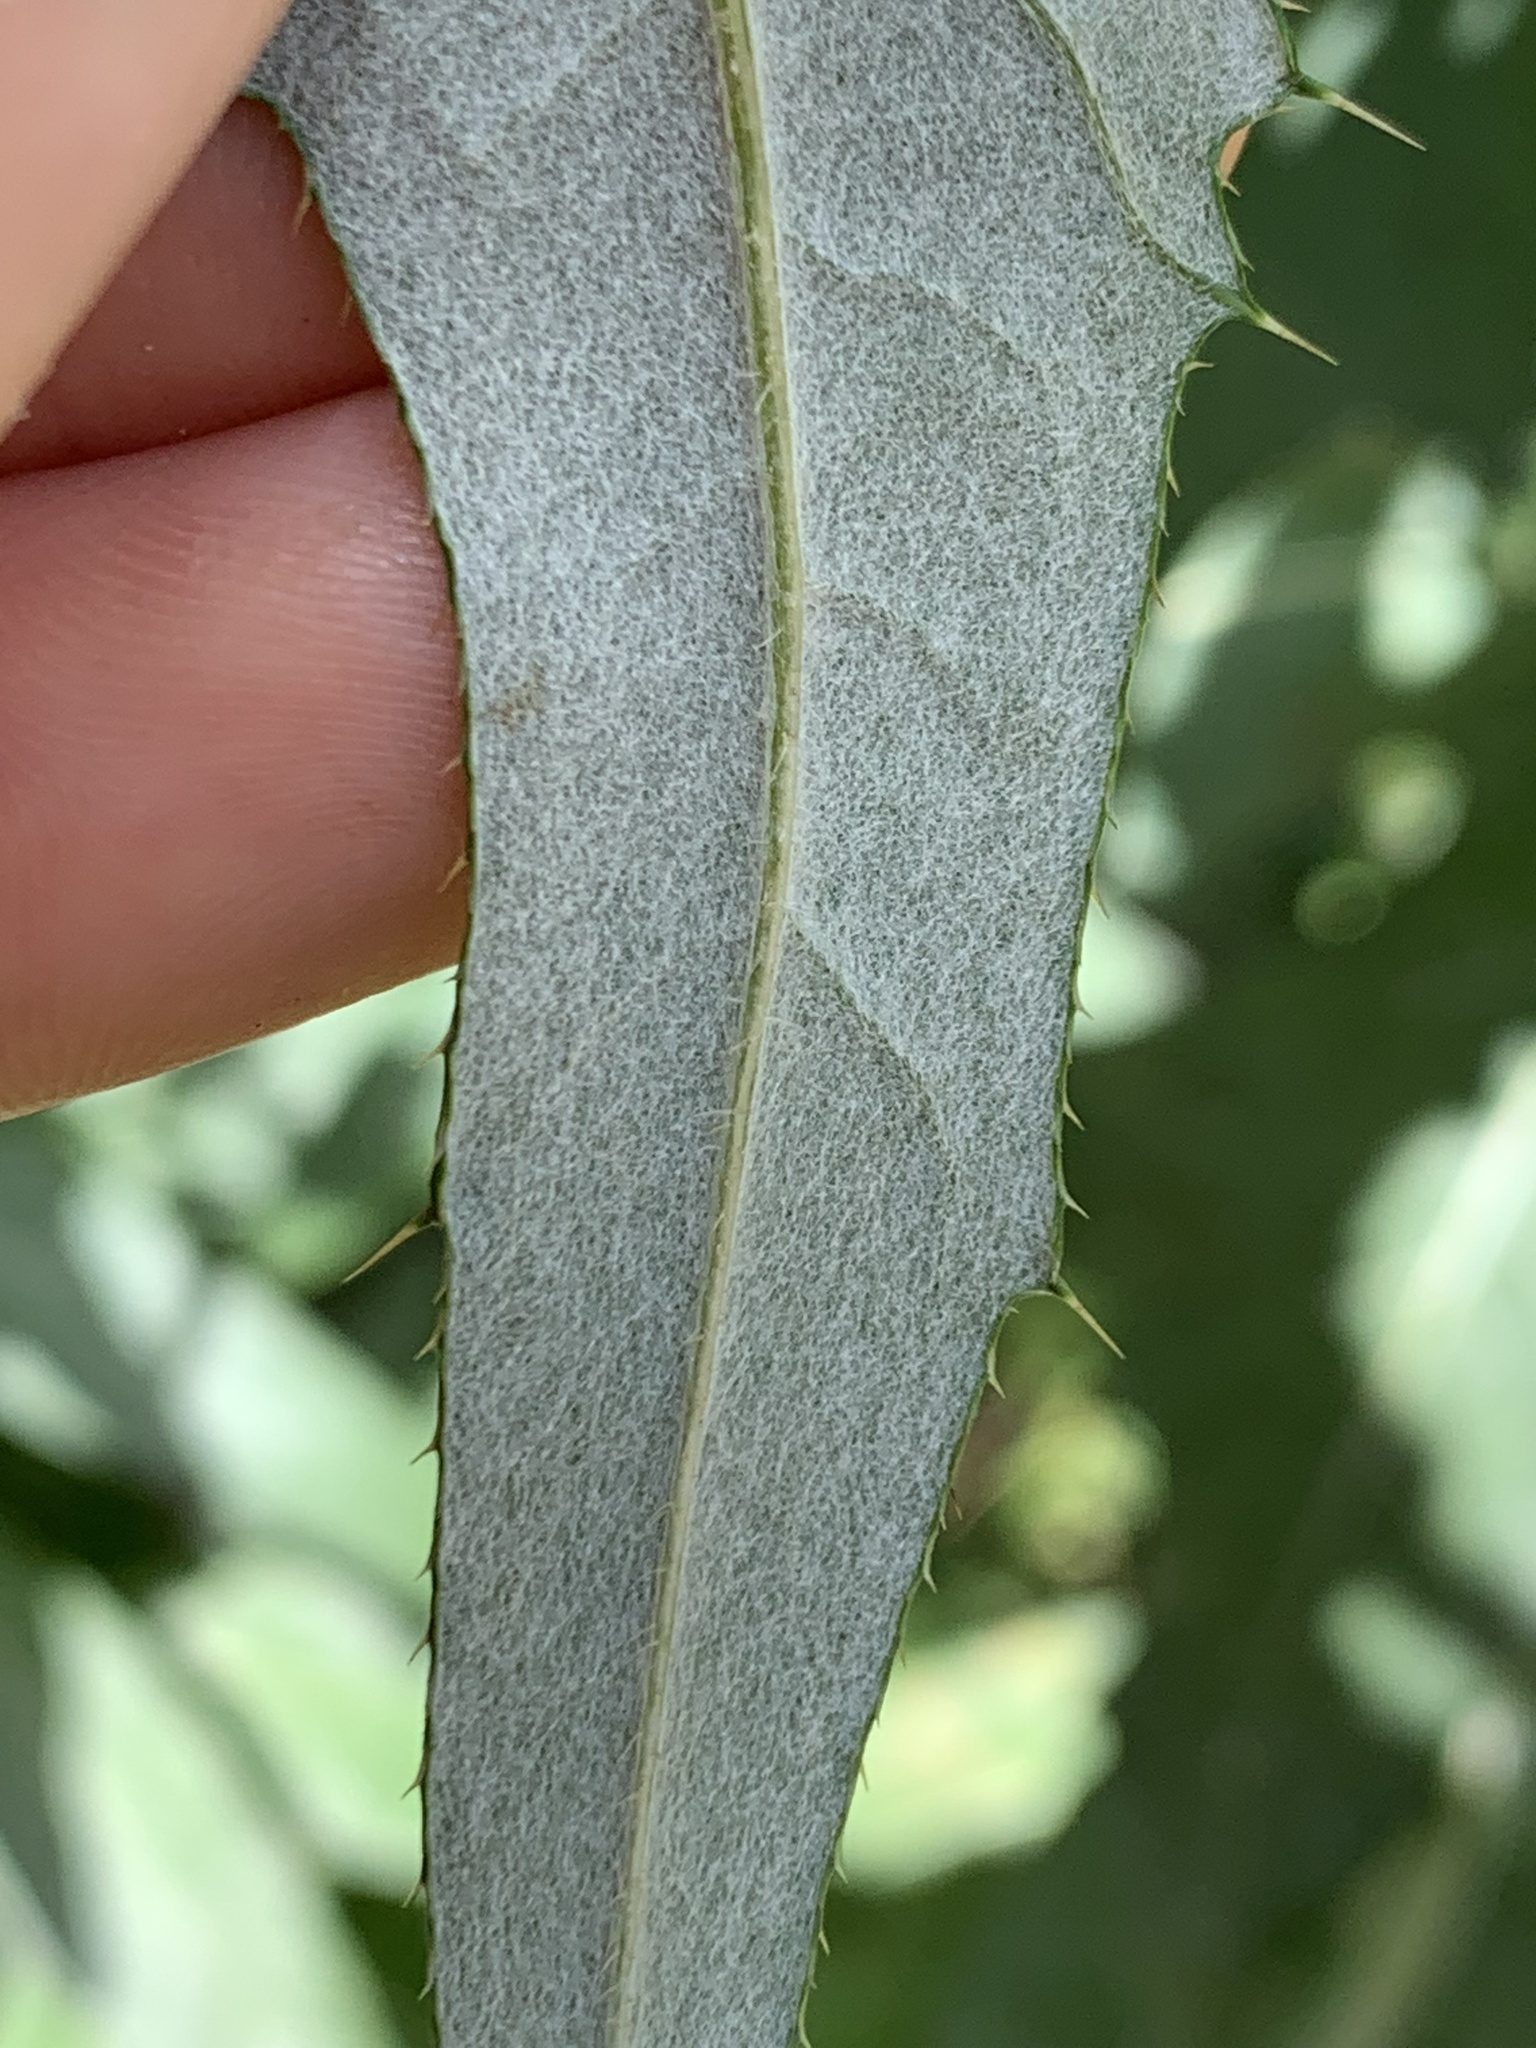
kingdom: Plantae
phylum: Tracheophyta
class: Magnoliopsida
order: Asterales
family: Asteraceae
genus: Cirsium
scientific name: Cirsium altissimum
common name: Roadside thistle
